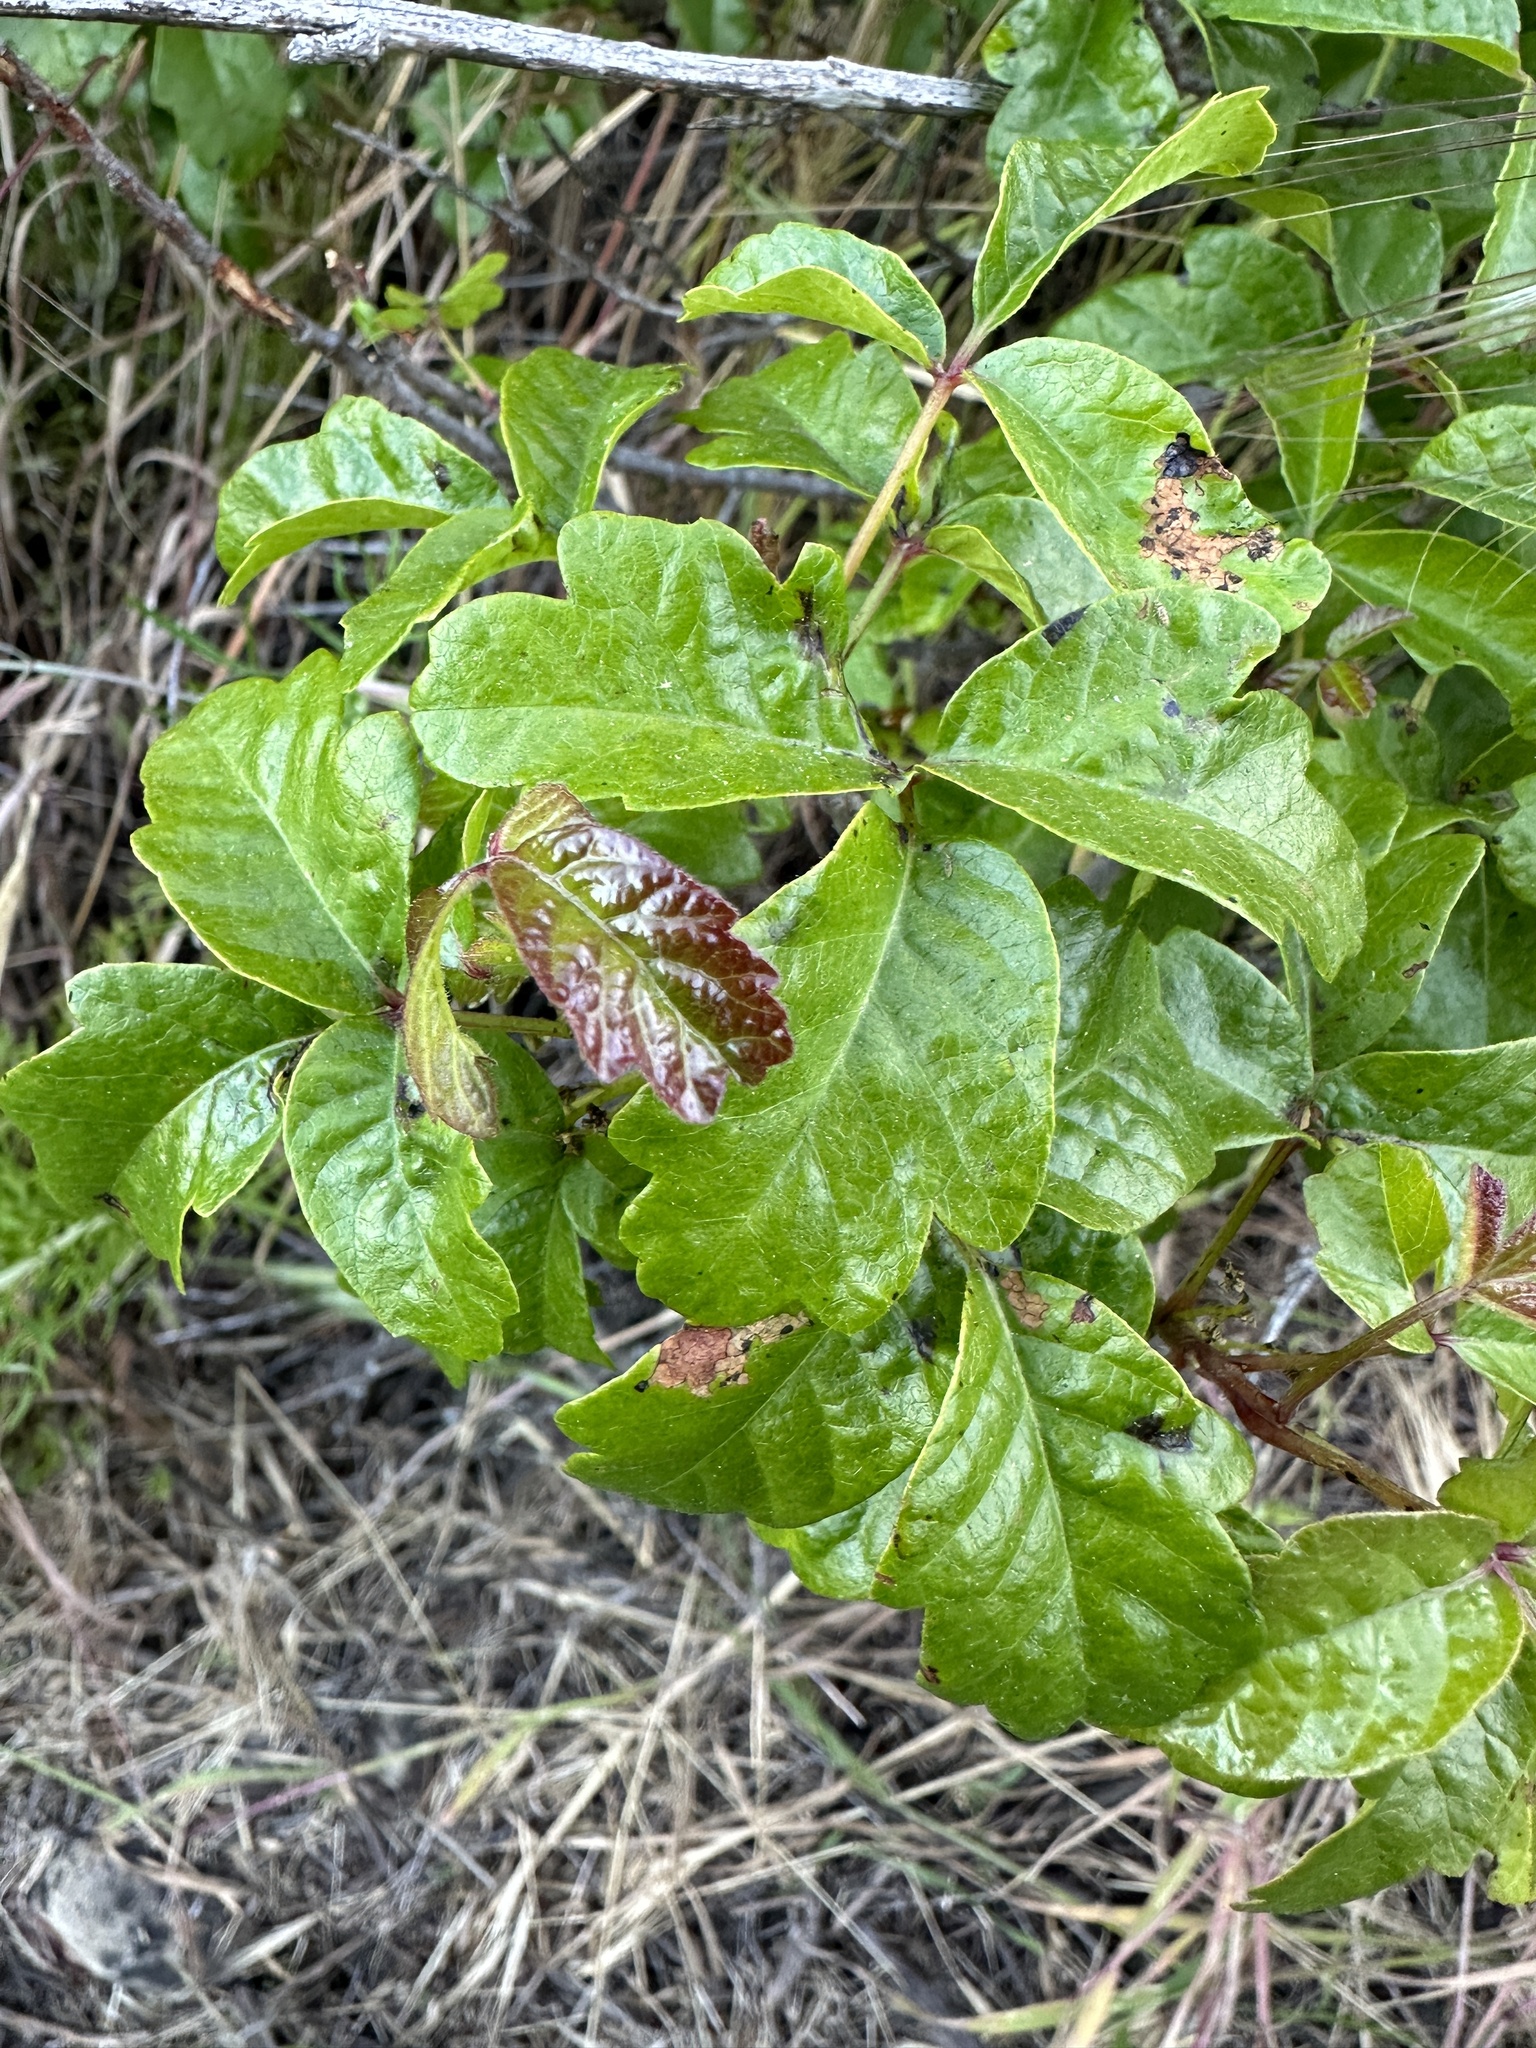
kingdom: Plantae
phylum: Tracheophyta
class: Magnoliopsida
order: Sapindales
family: Anacardiaceae
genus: Toxicodendron
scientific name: Toxicodendron diversilobum
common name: Pacific poison-oak
